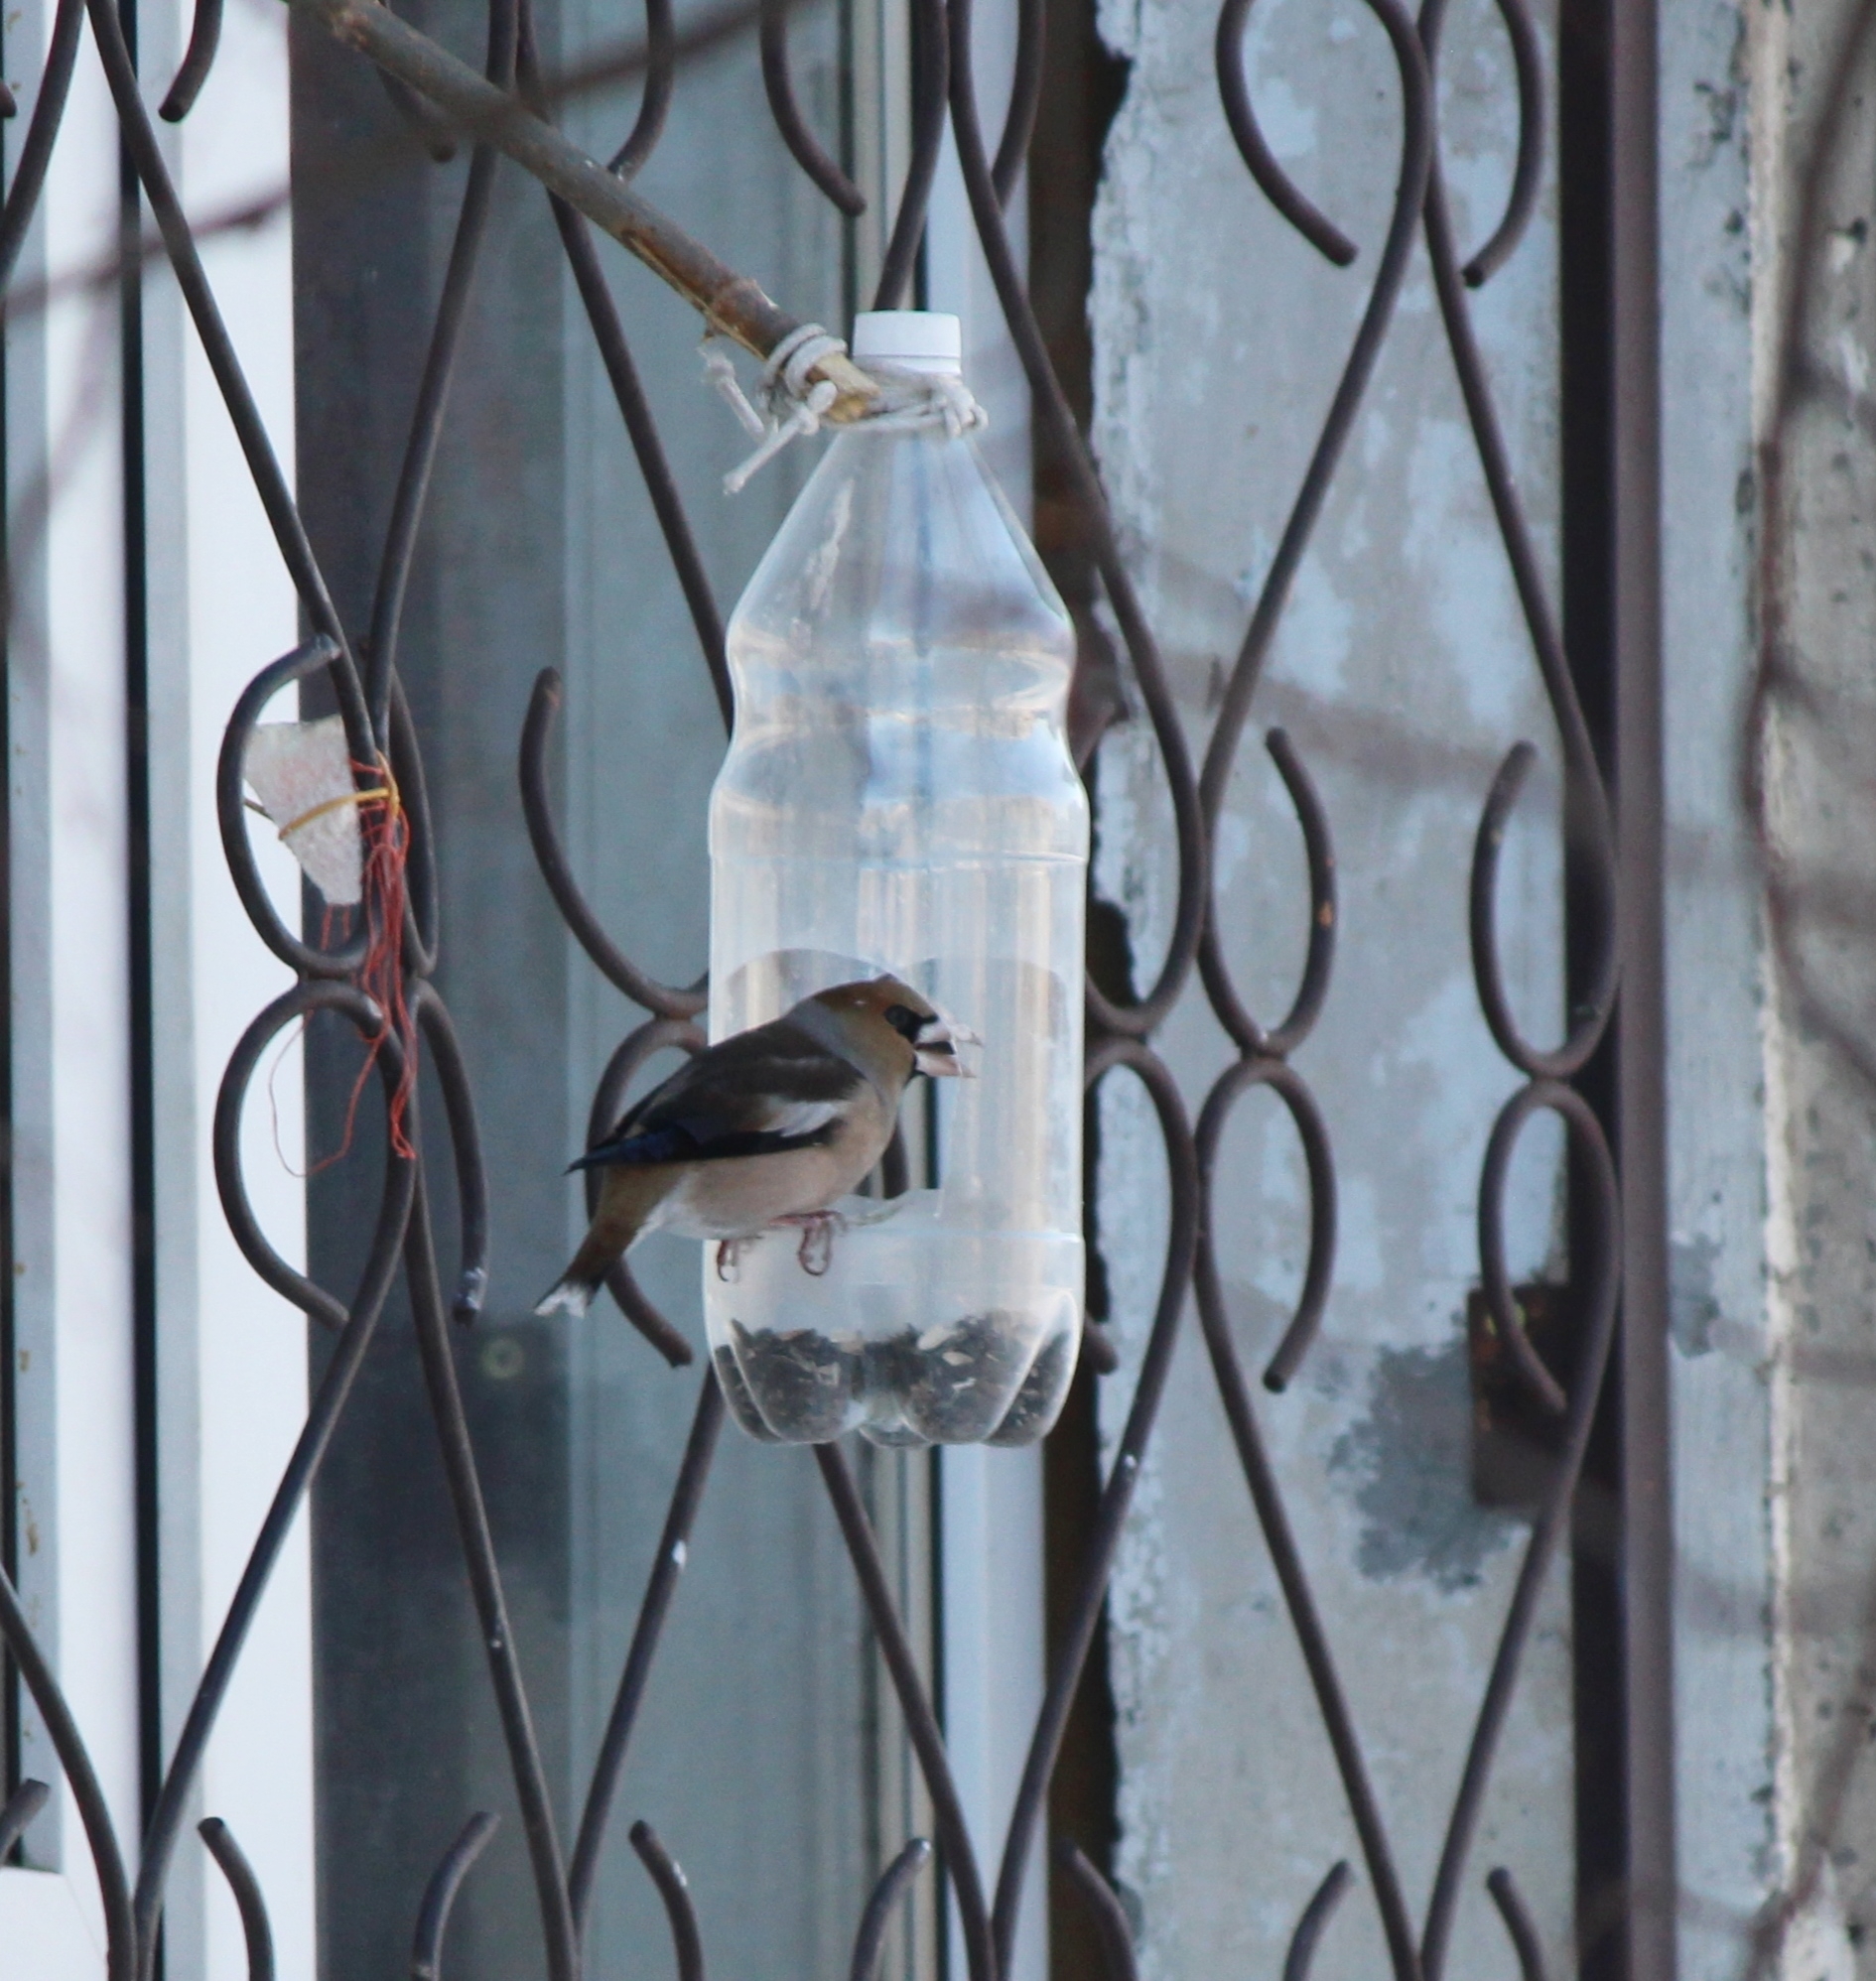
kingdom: Animalia
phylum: Chordata
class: Aves
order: Passeriformes
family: Fringillidae
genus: Coccothraustes
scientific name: Coccothraustes coccothraustes
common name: Hawfinch
